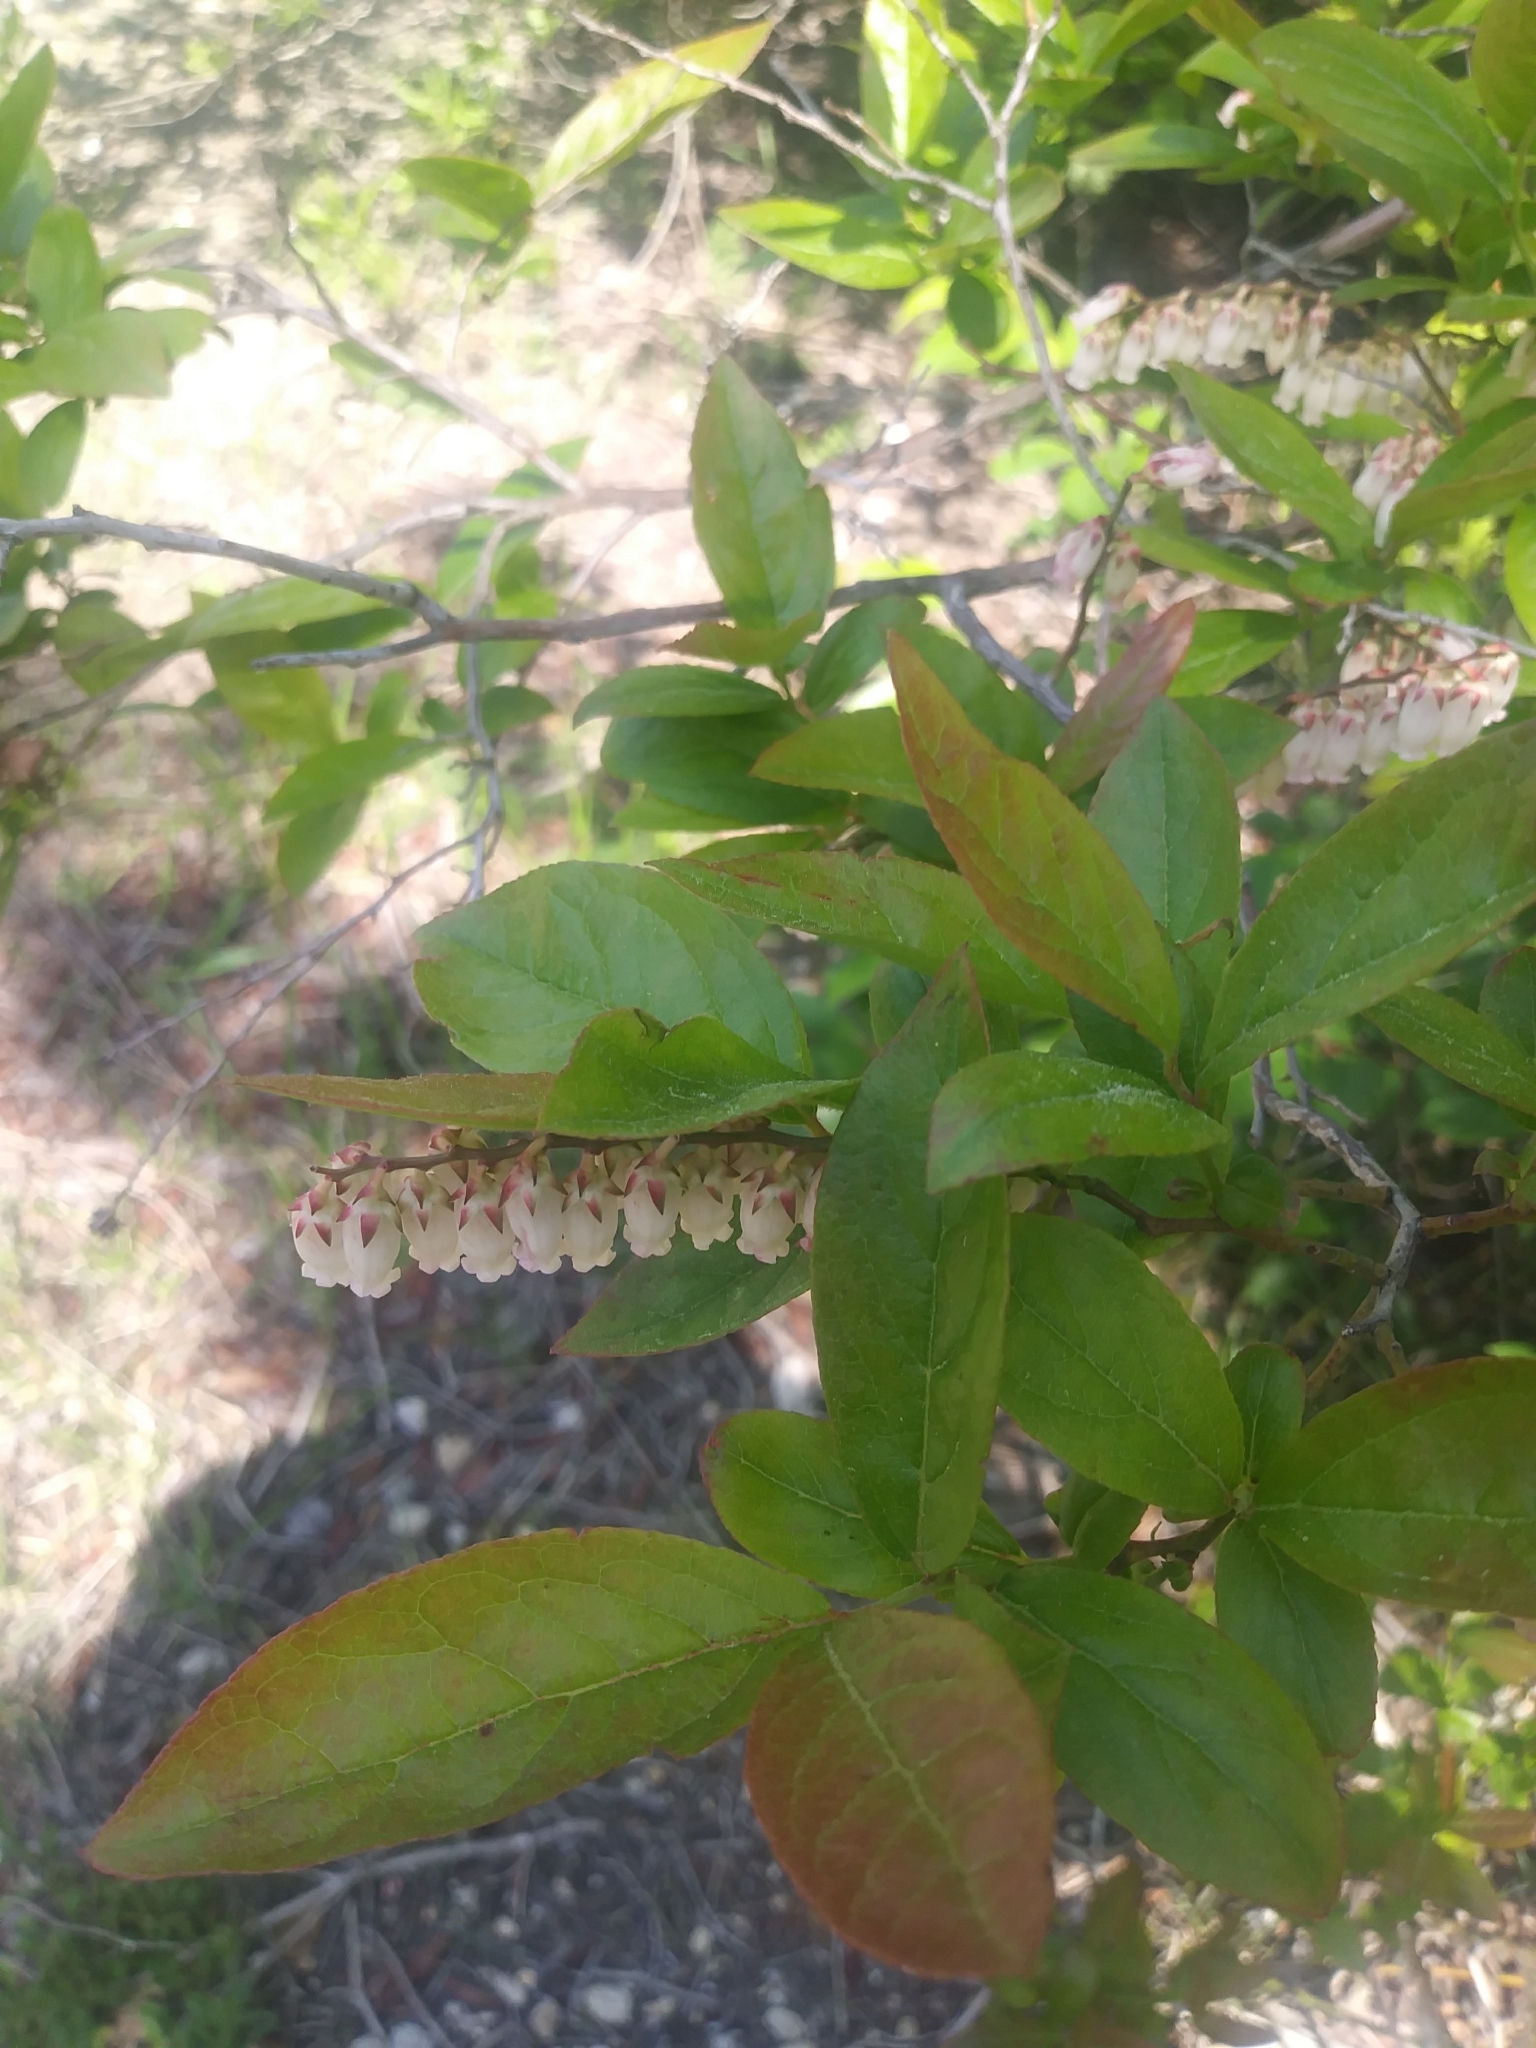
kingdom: Plantae
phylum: Tracheophyta
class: Magnoliopsida
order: Ericales
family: Ericaceae
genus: Eubotrys
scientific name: Eubotrys racemosa
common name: Fetterbush
